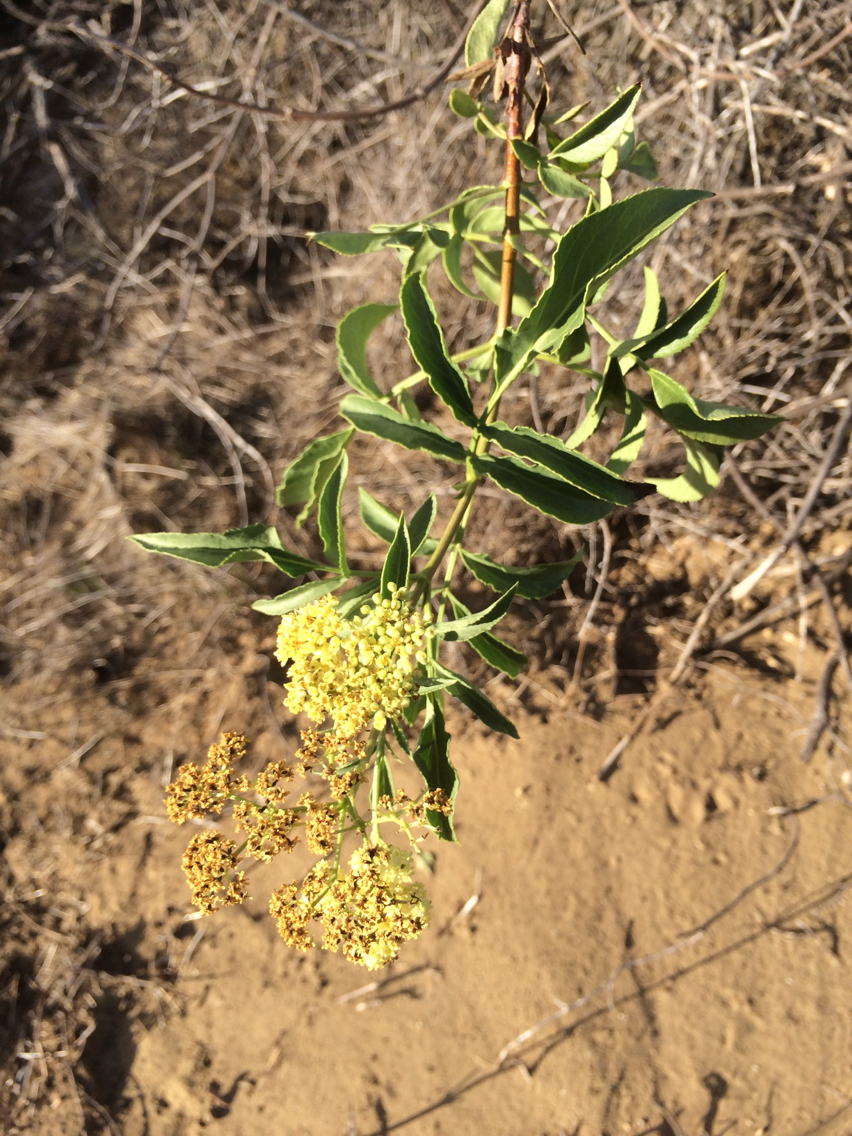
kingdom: Plantae
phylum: Tracheophyta
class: Magnoliopsida
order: Dipsacales
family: Viburnaceae
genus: Sambucus
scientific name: Sambucus cerulea
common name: Blue elder
